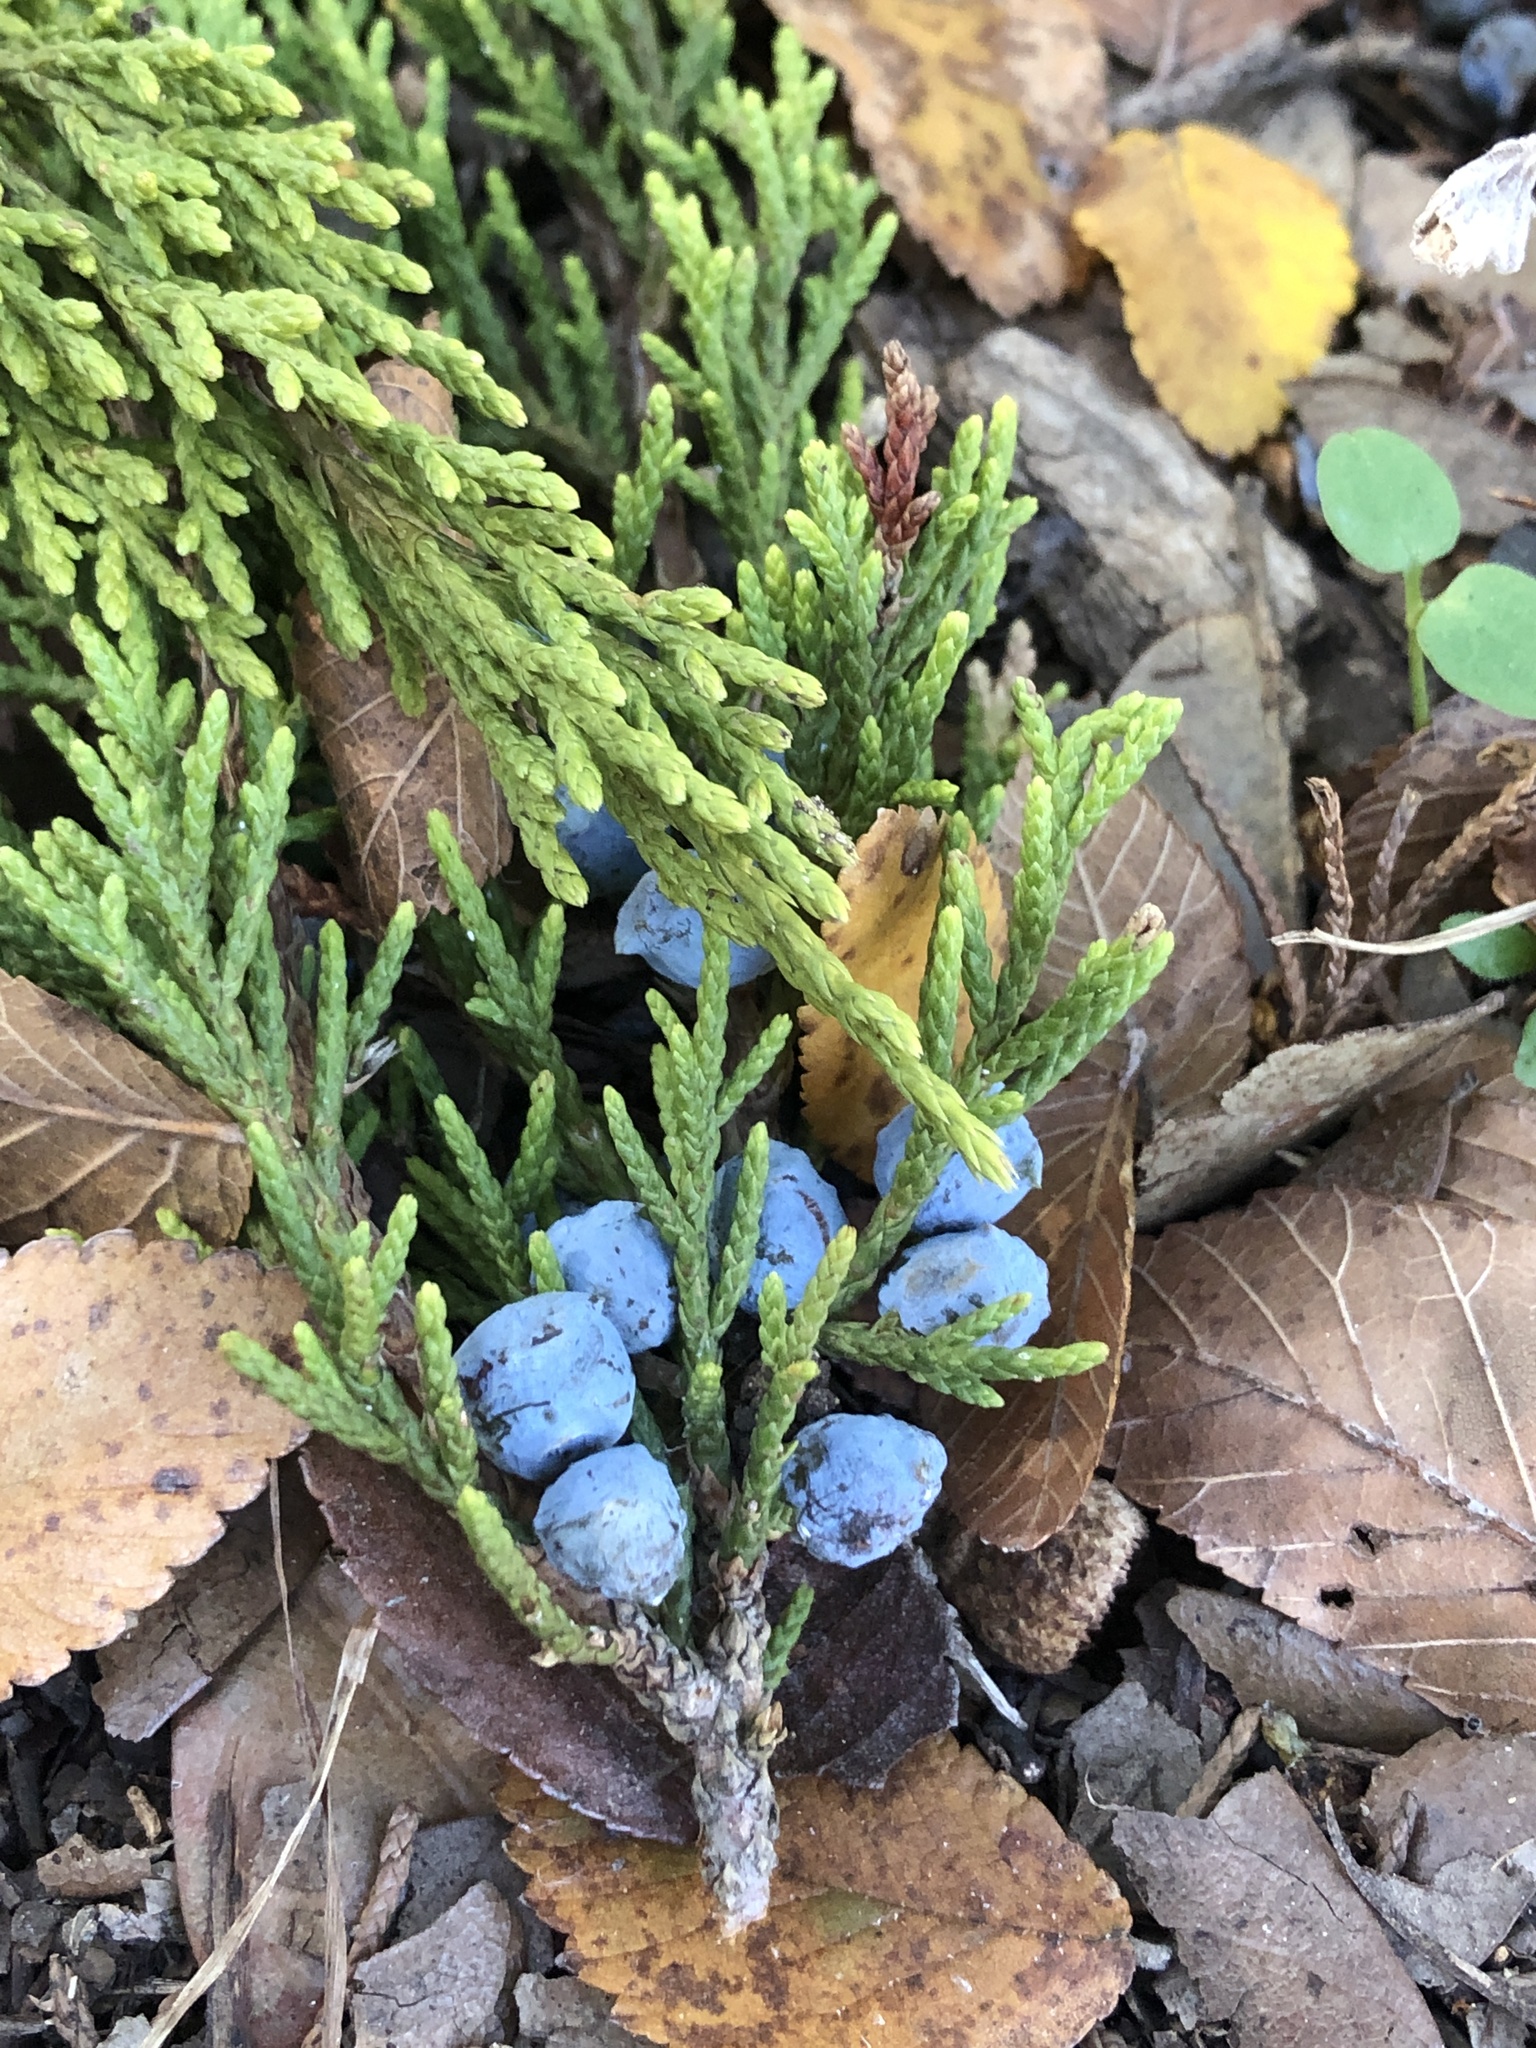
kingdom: Plantae
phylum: Tracheophyta
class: Pinopsida
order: Pinales
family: Cupressaceae
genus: Juniperus
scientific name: Juniperus ashei
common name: Mexican juniper
